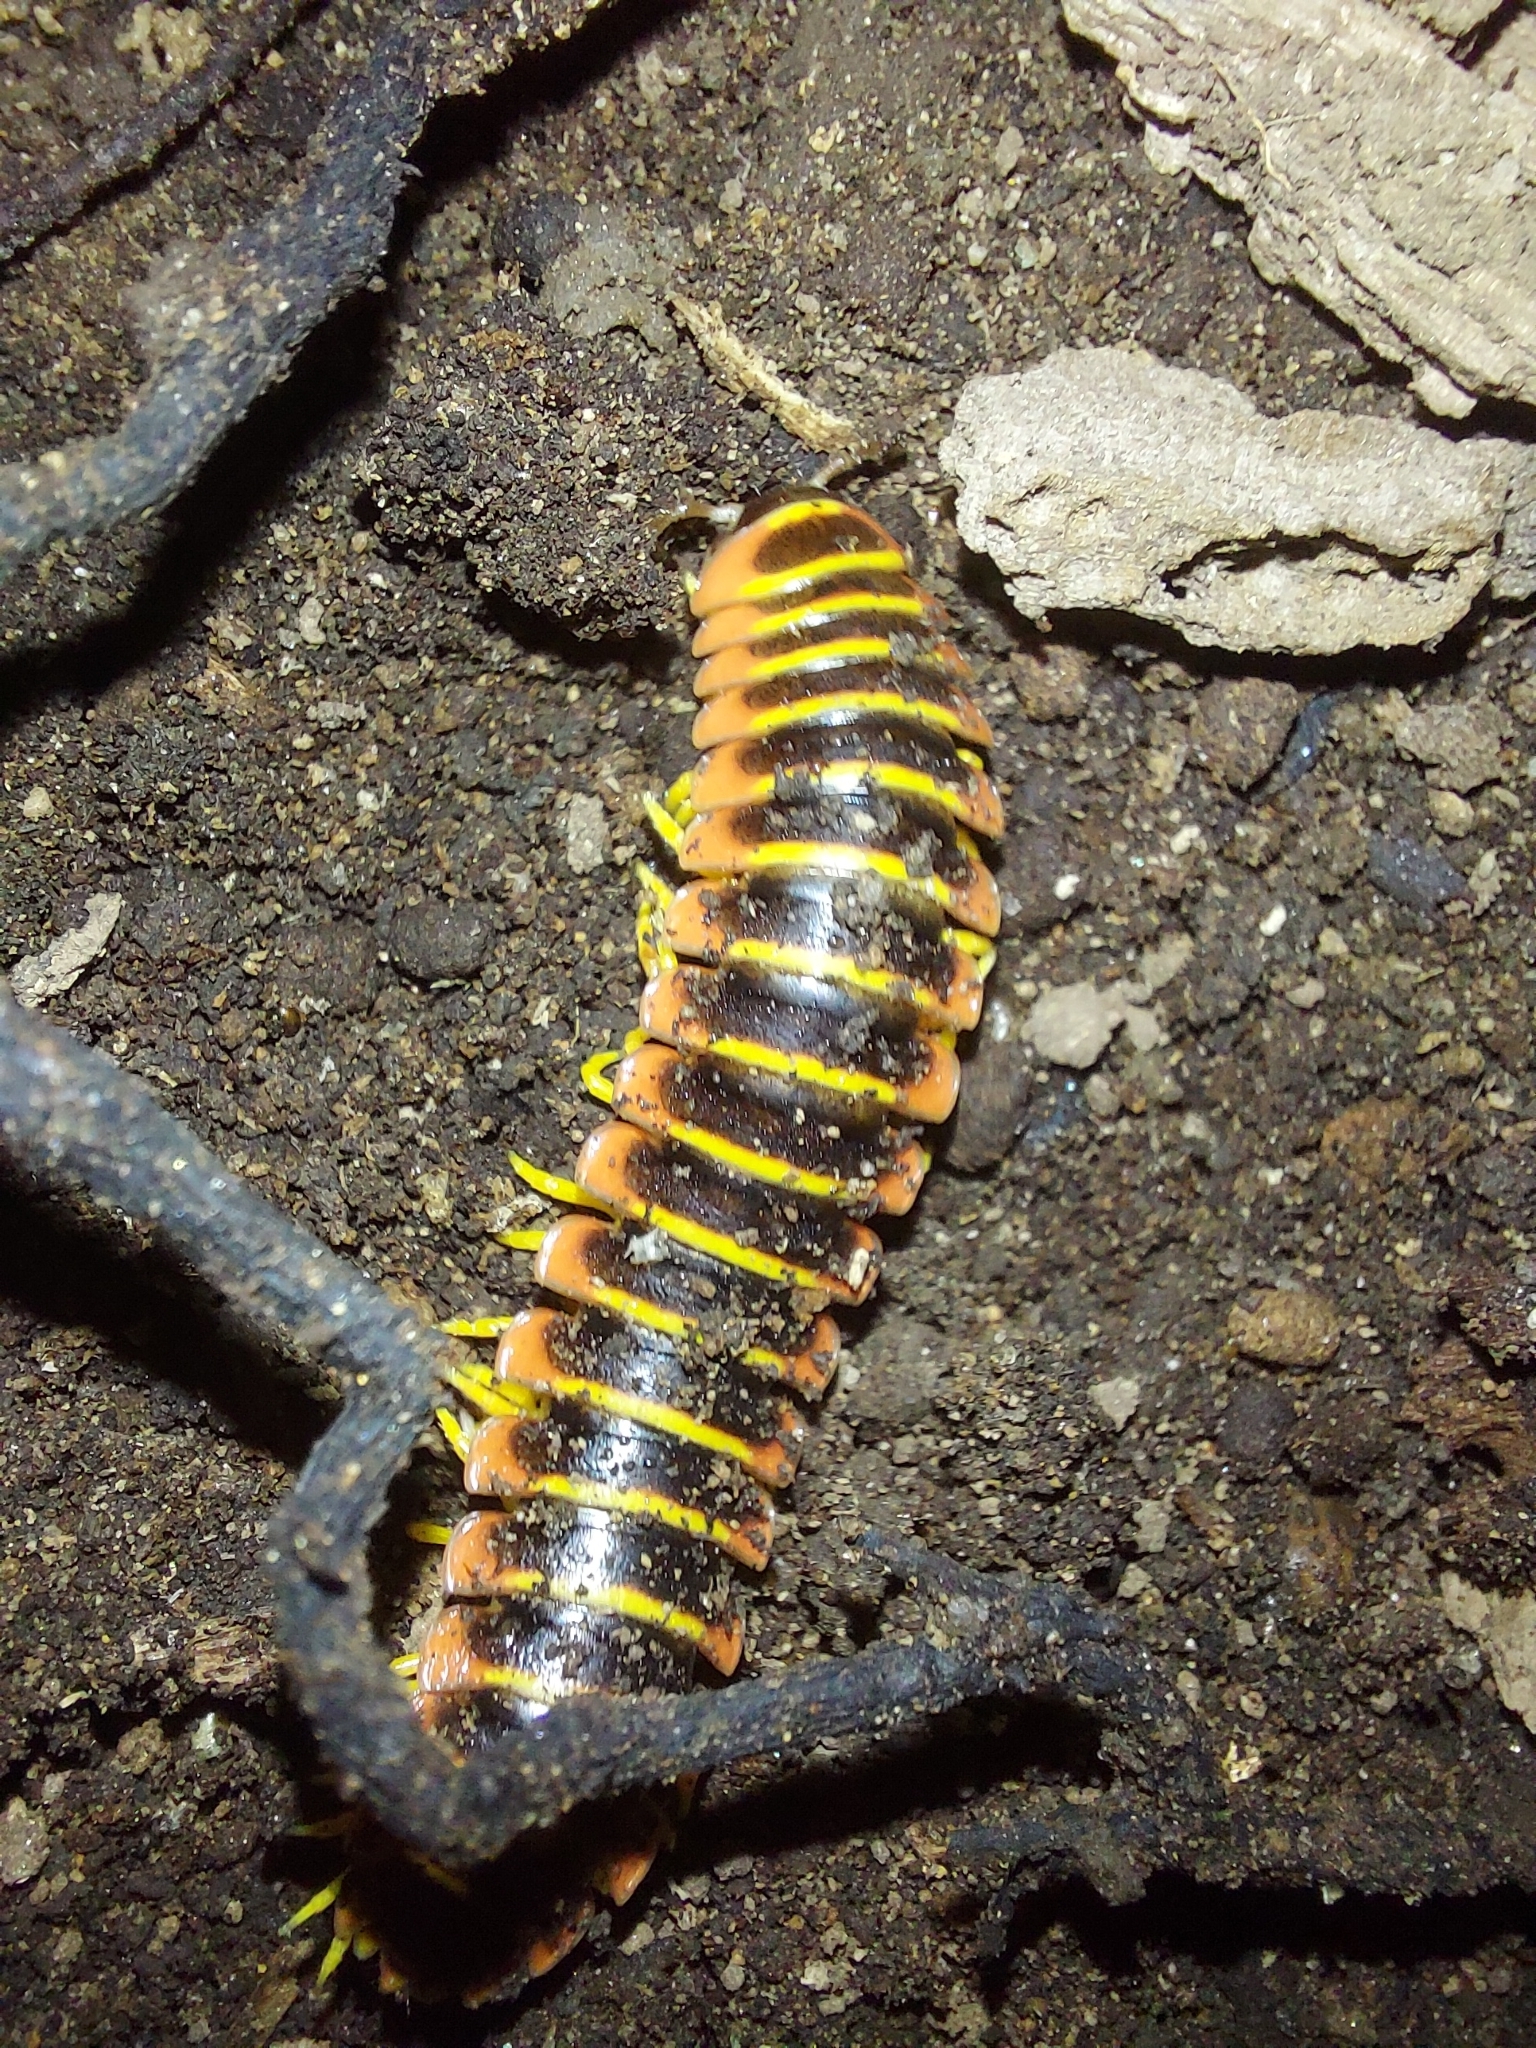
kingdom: Animalia
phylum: Arthropoda
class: Diplopoda
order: Polydesmida
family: Xystodesmidae
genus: Apheloria
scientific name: Apheloria virginiensis
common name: Black-and-gold flat millipede
